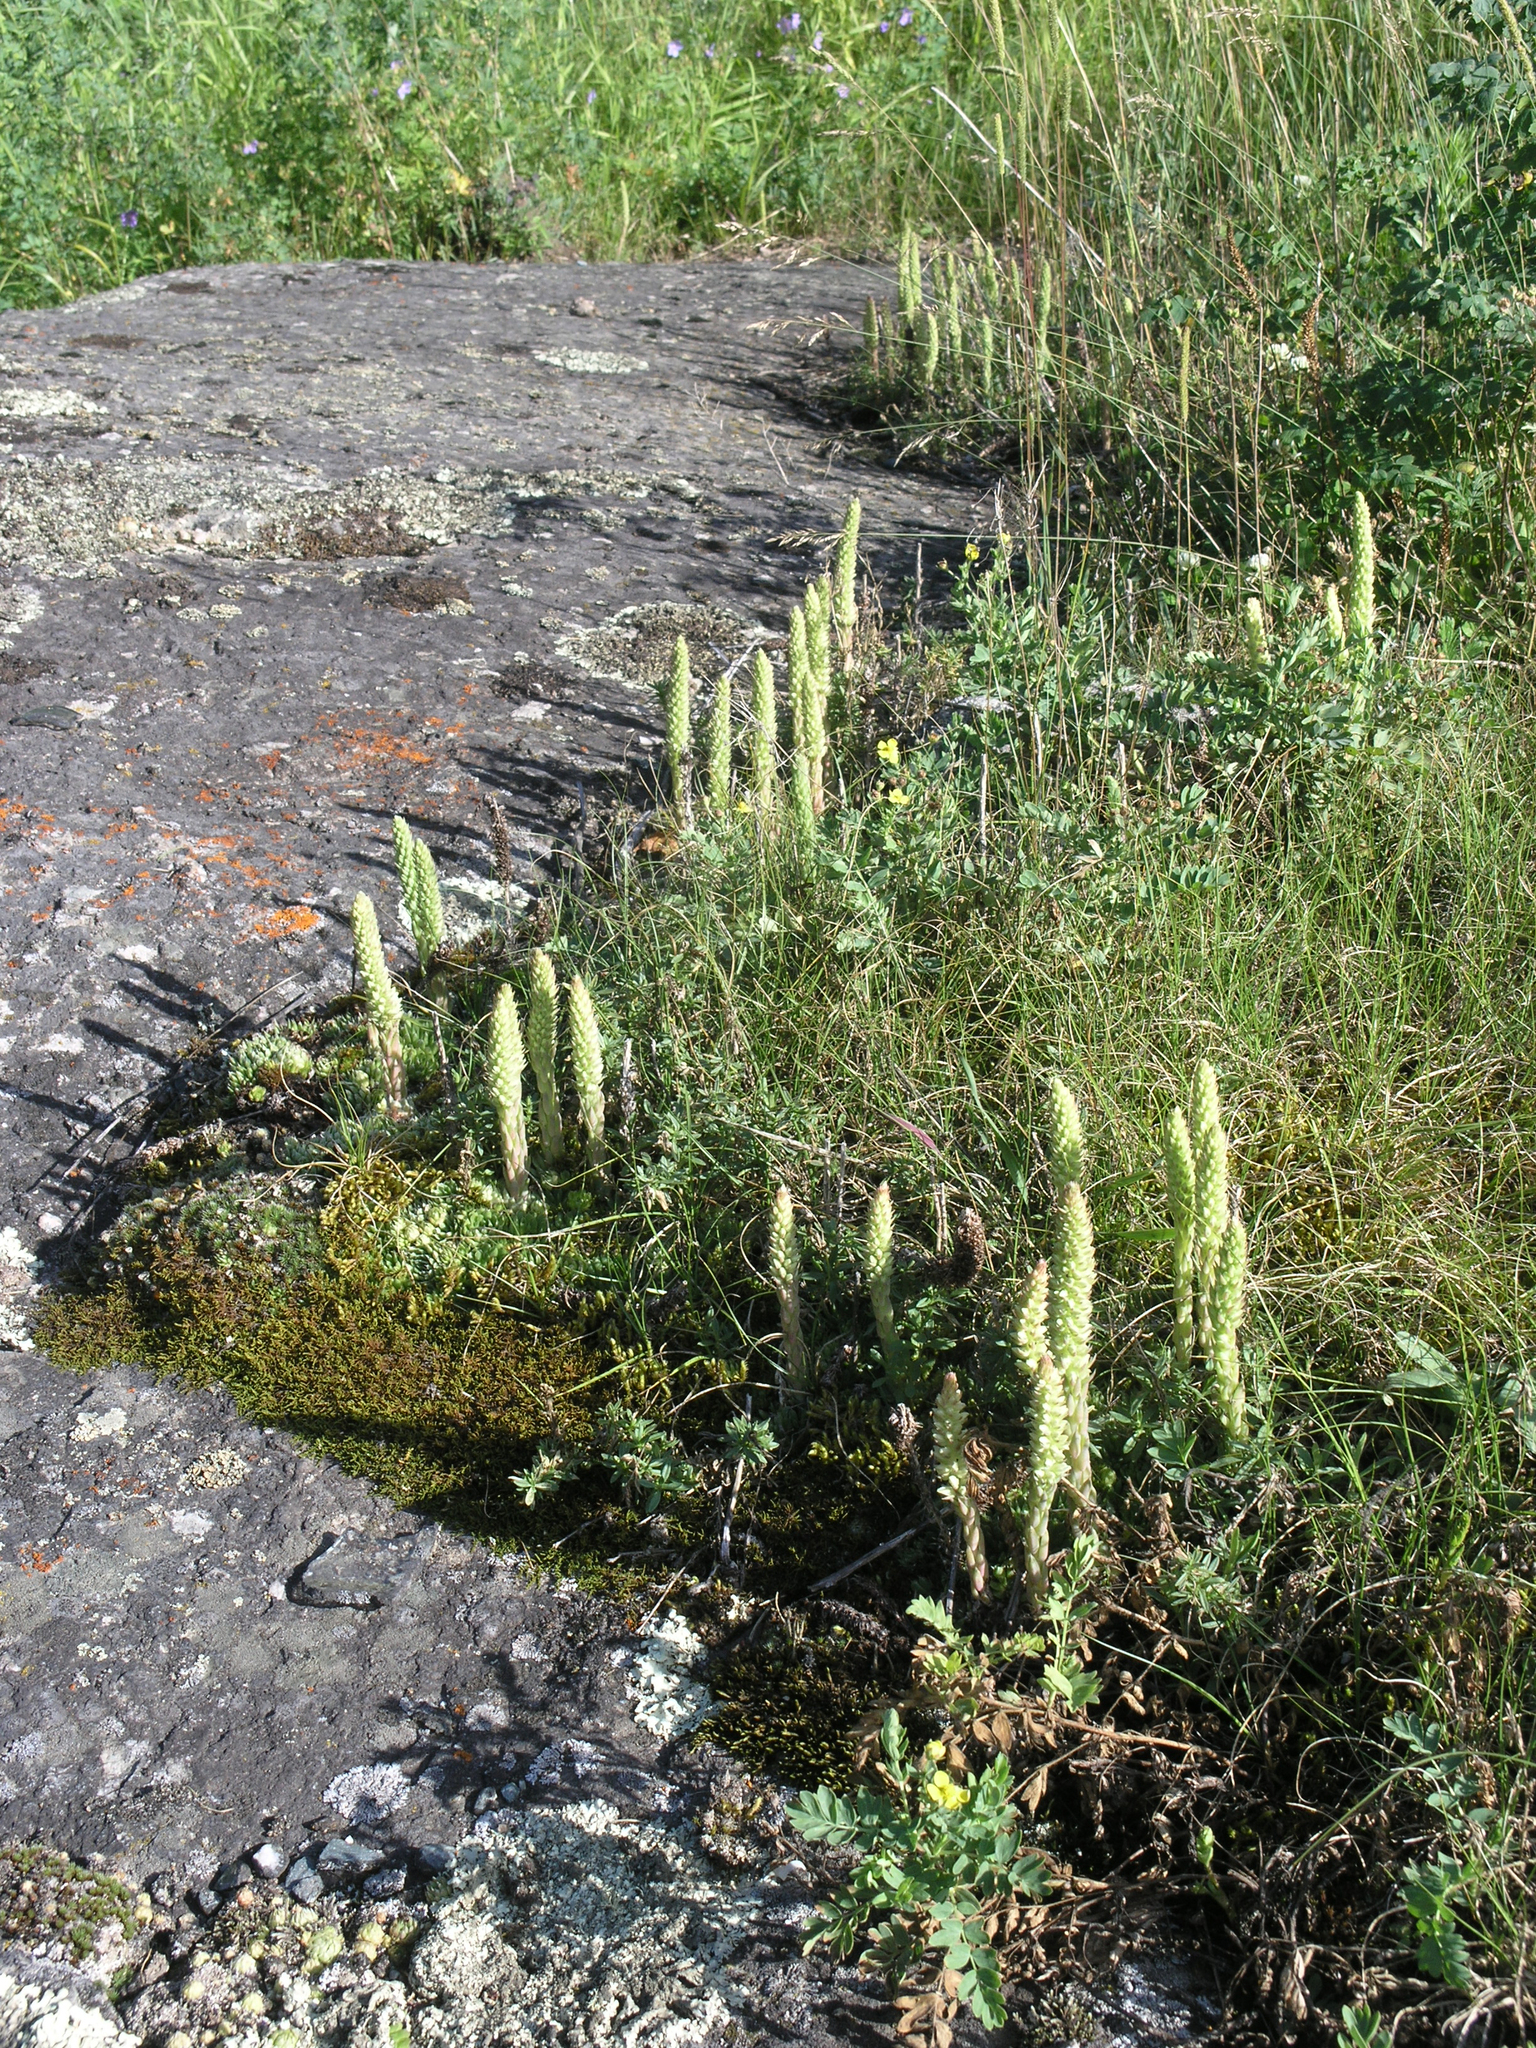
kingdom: Plantae
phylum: Tracheophyta
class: Magnoliopsida
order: Saxifragales
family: Crassulaceae
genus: Orostachys
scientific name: Orostachys spinosa
